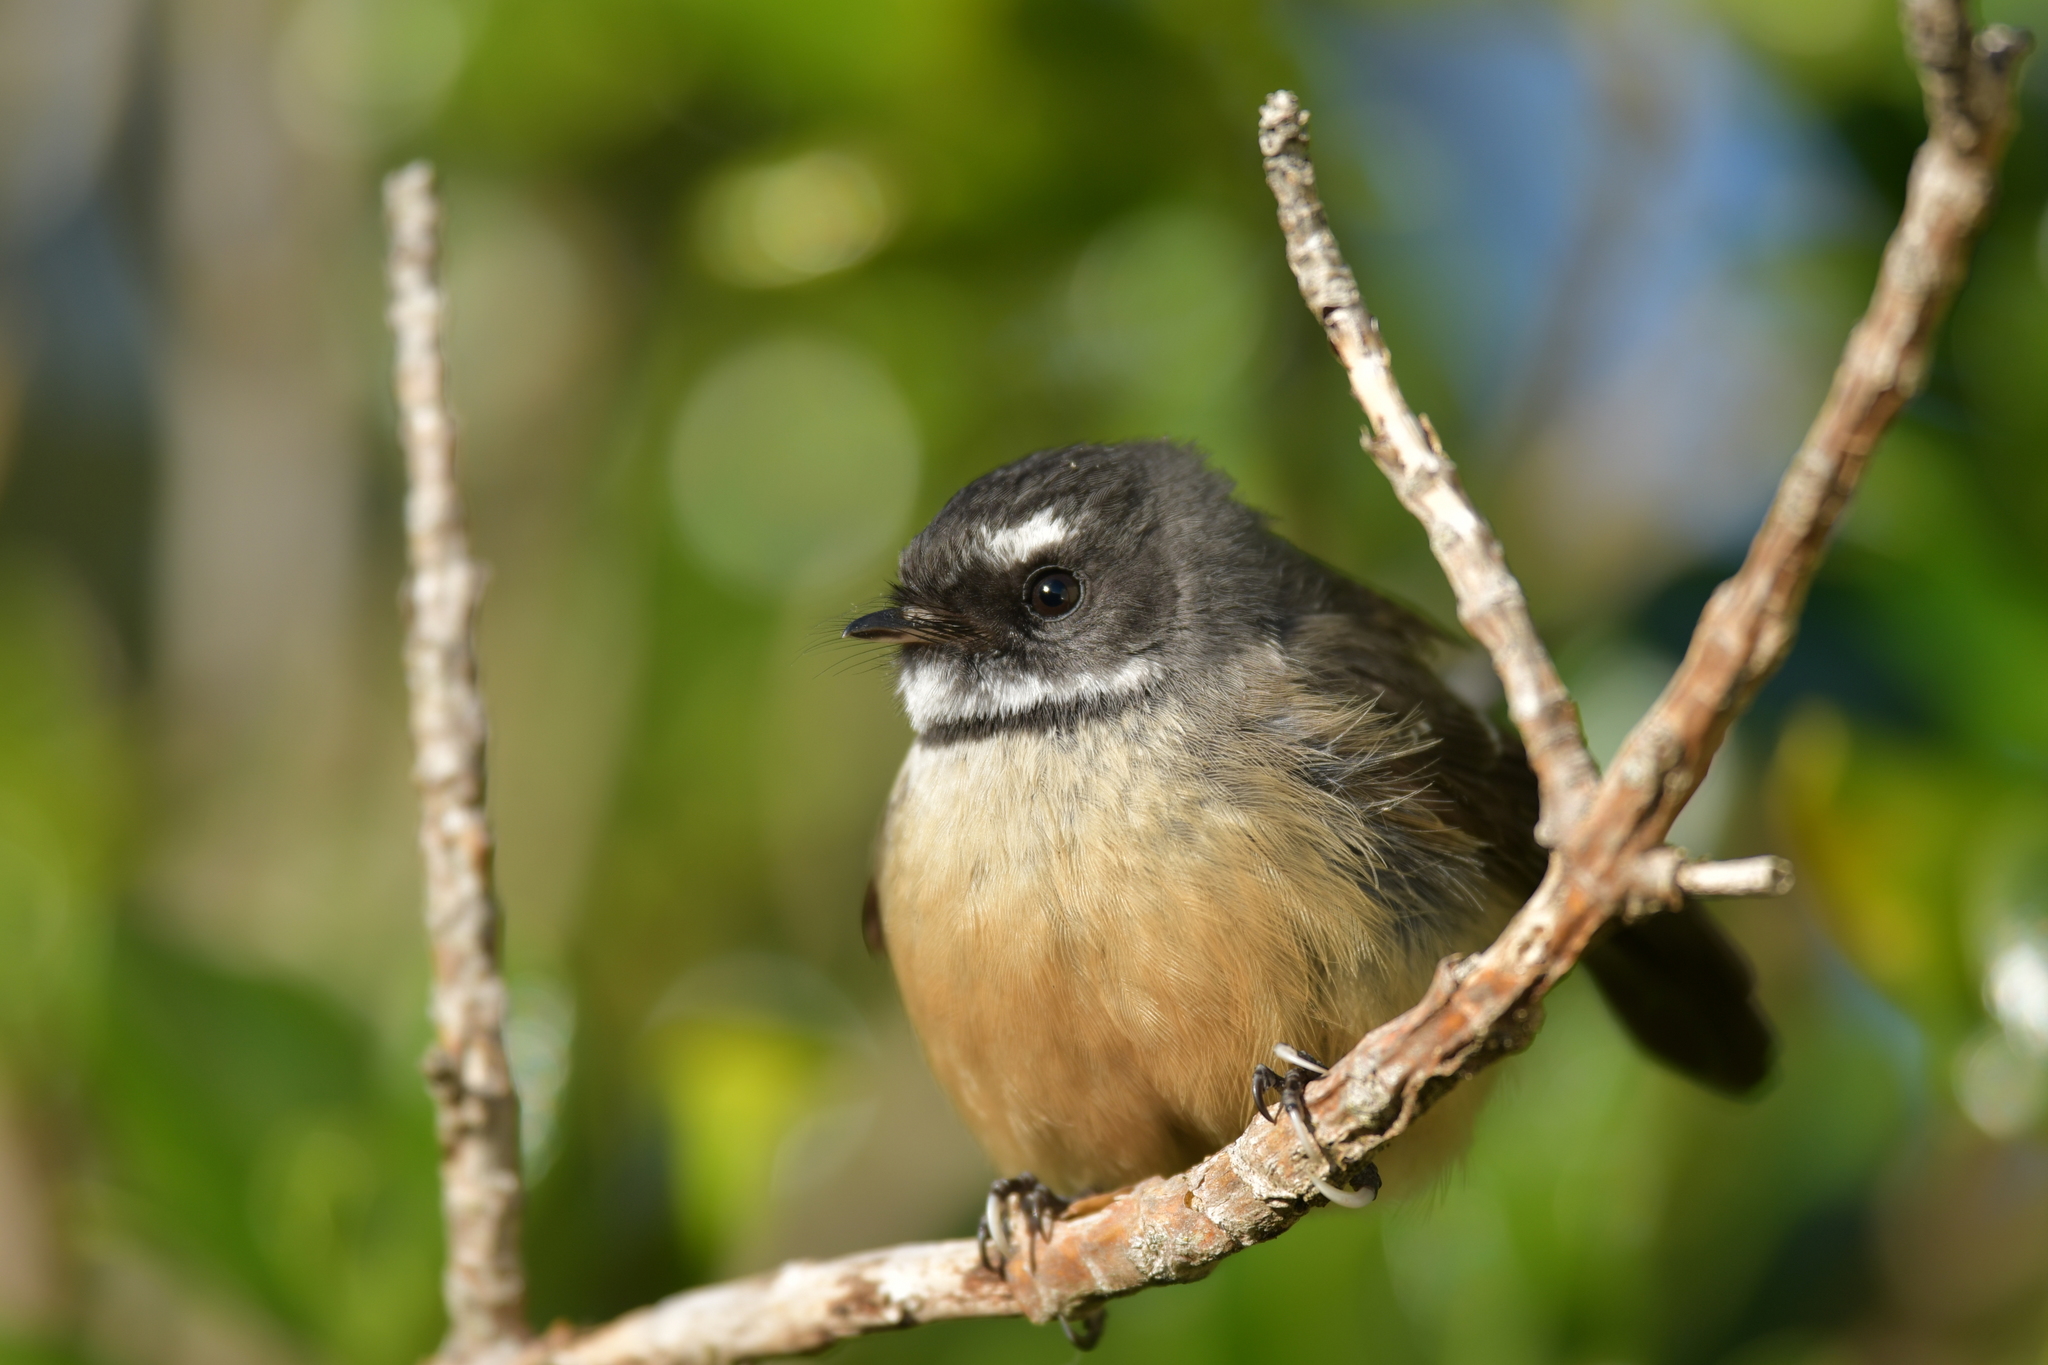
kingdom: Animalia
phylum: Chordata
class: Aves
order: Passeriformes
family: Rhipiduridae
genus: Rhipidura
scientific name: Rhipidura fuliginosa
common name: New zealand fantail
